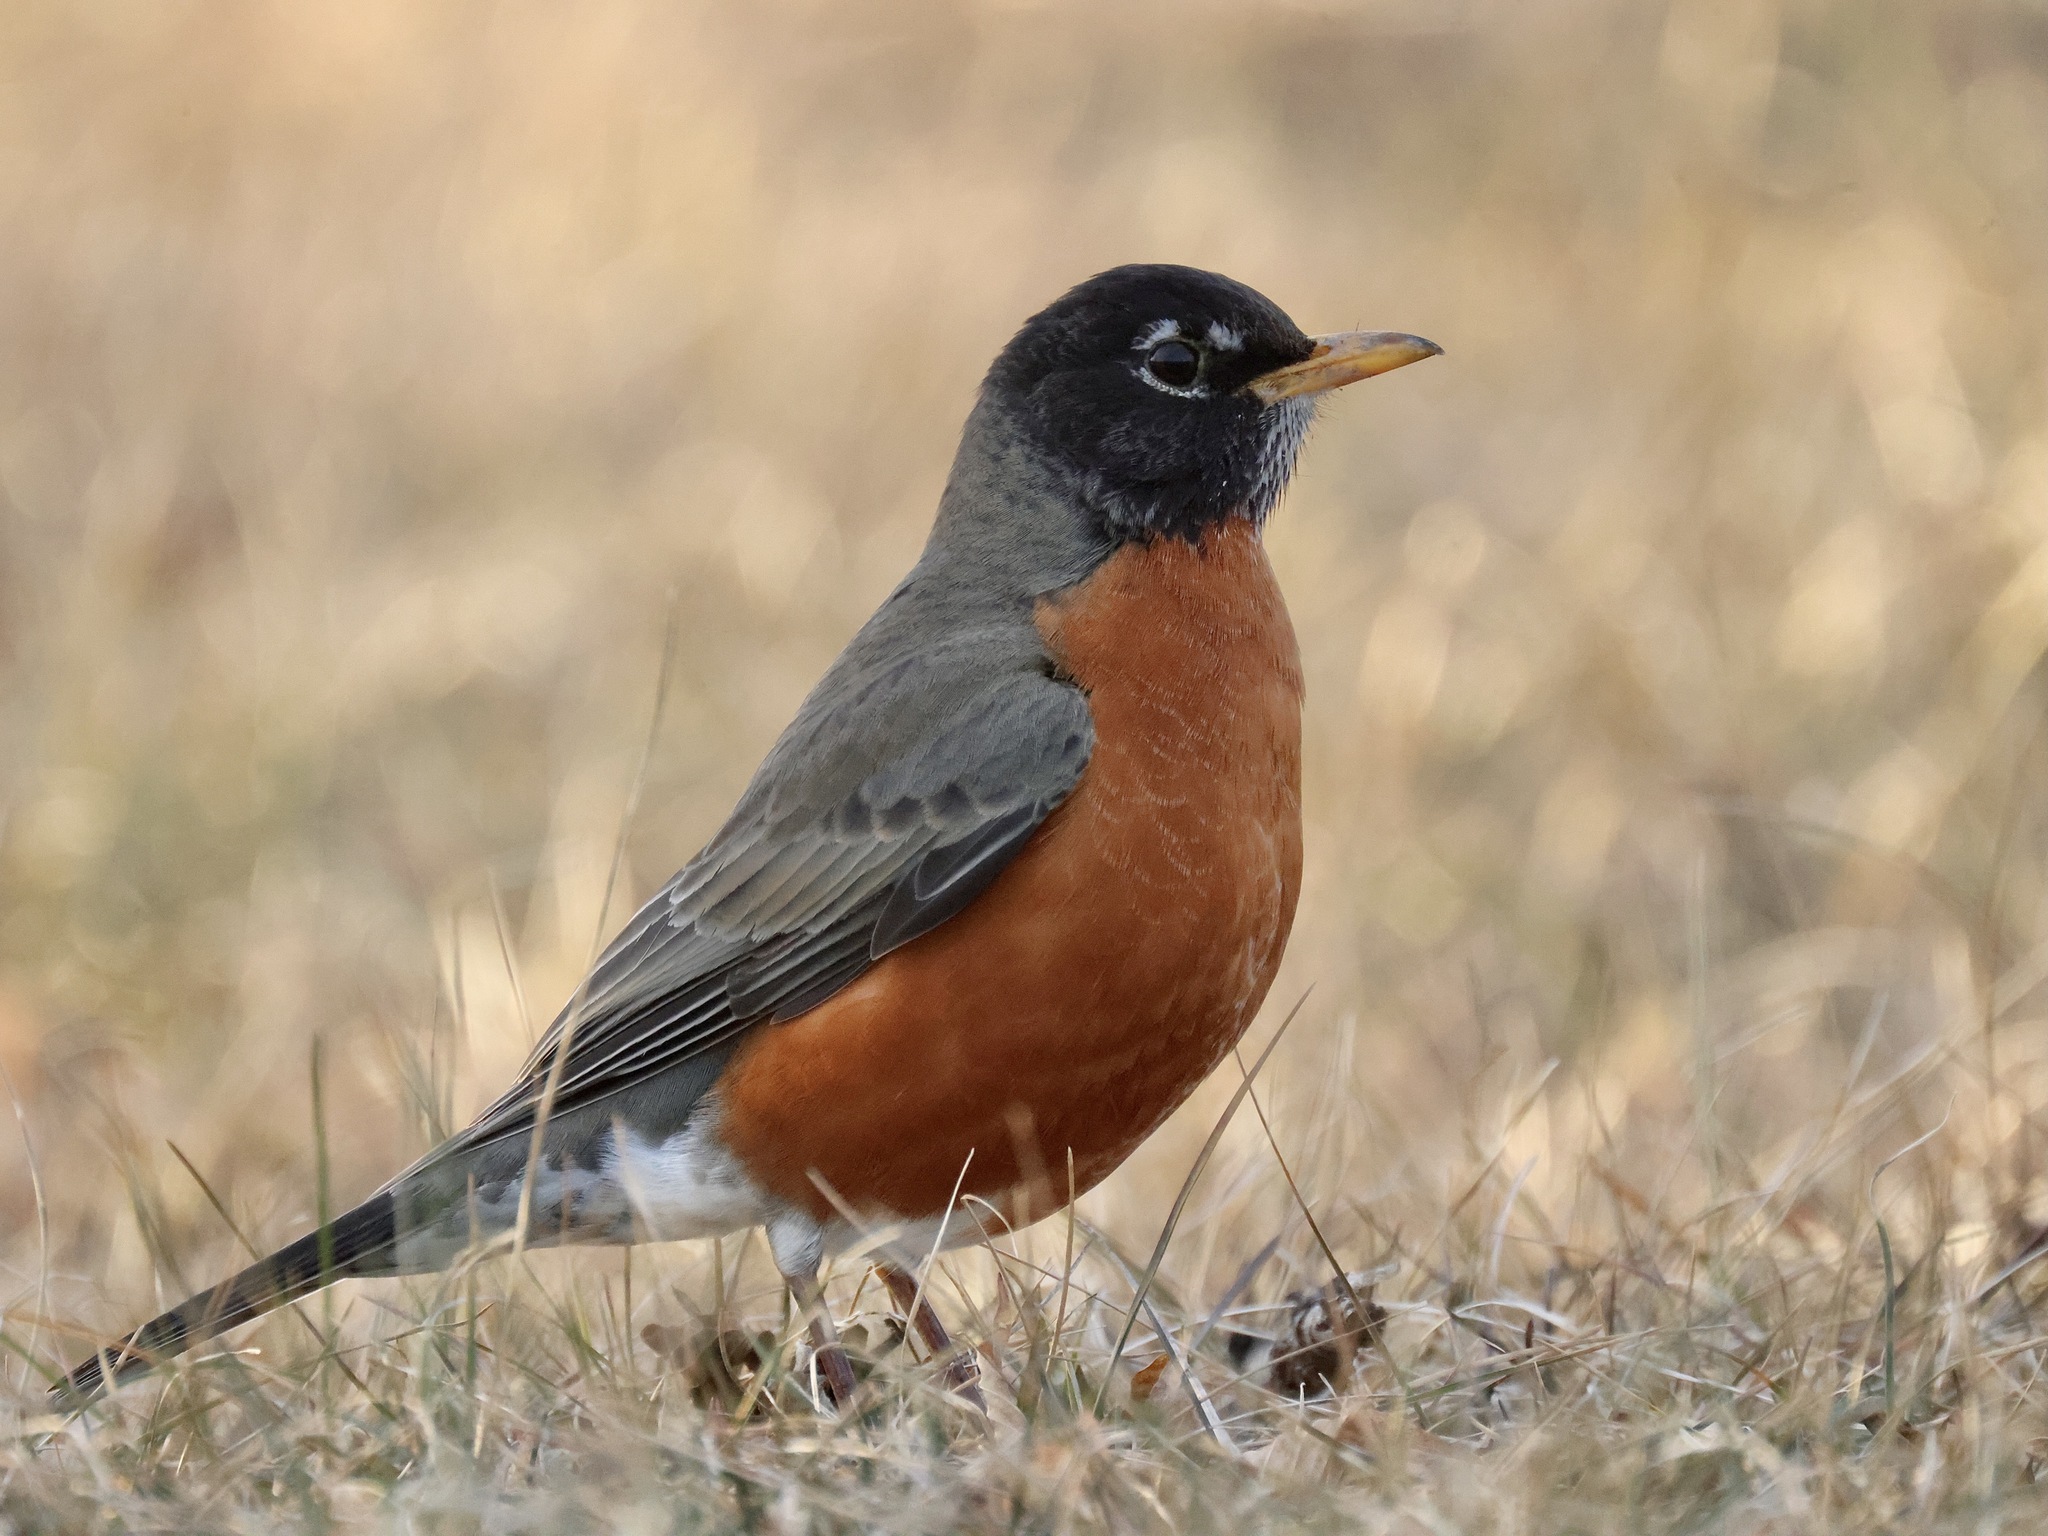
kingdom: Animalia
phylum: Chordata
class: Aves
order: Passeriformes
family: Turdidae
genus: Turdus
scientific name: Turdus migratorius
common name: American robin
